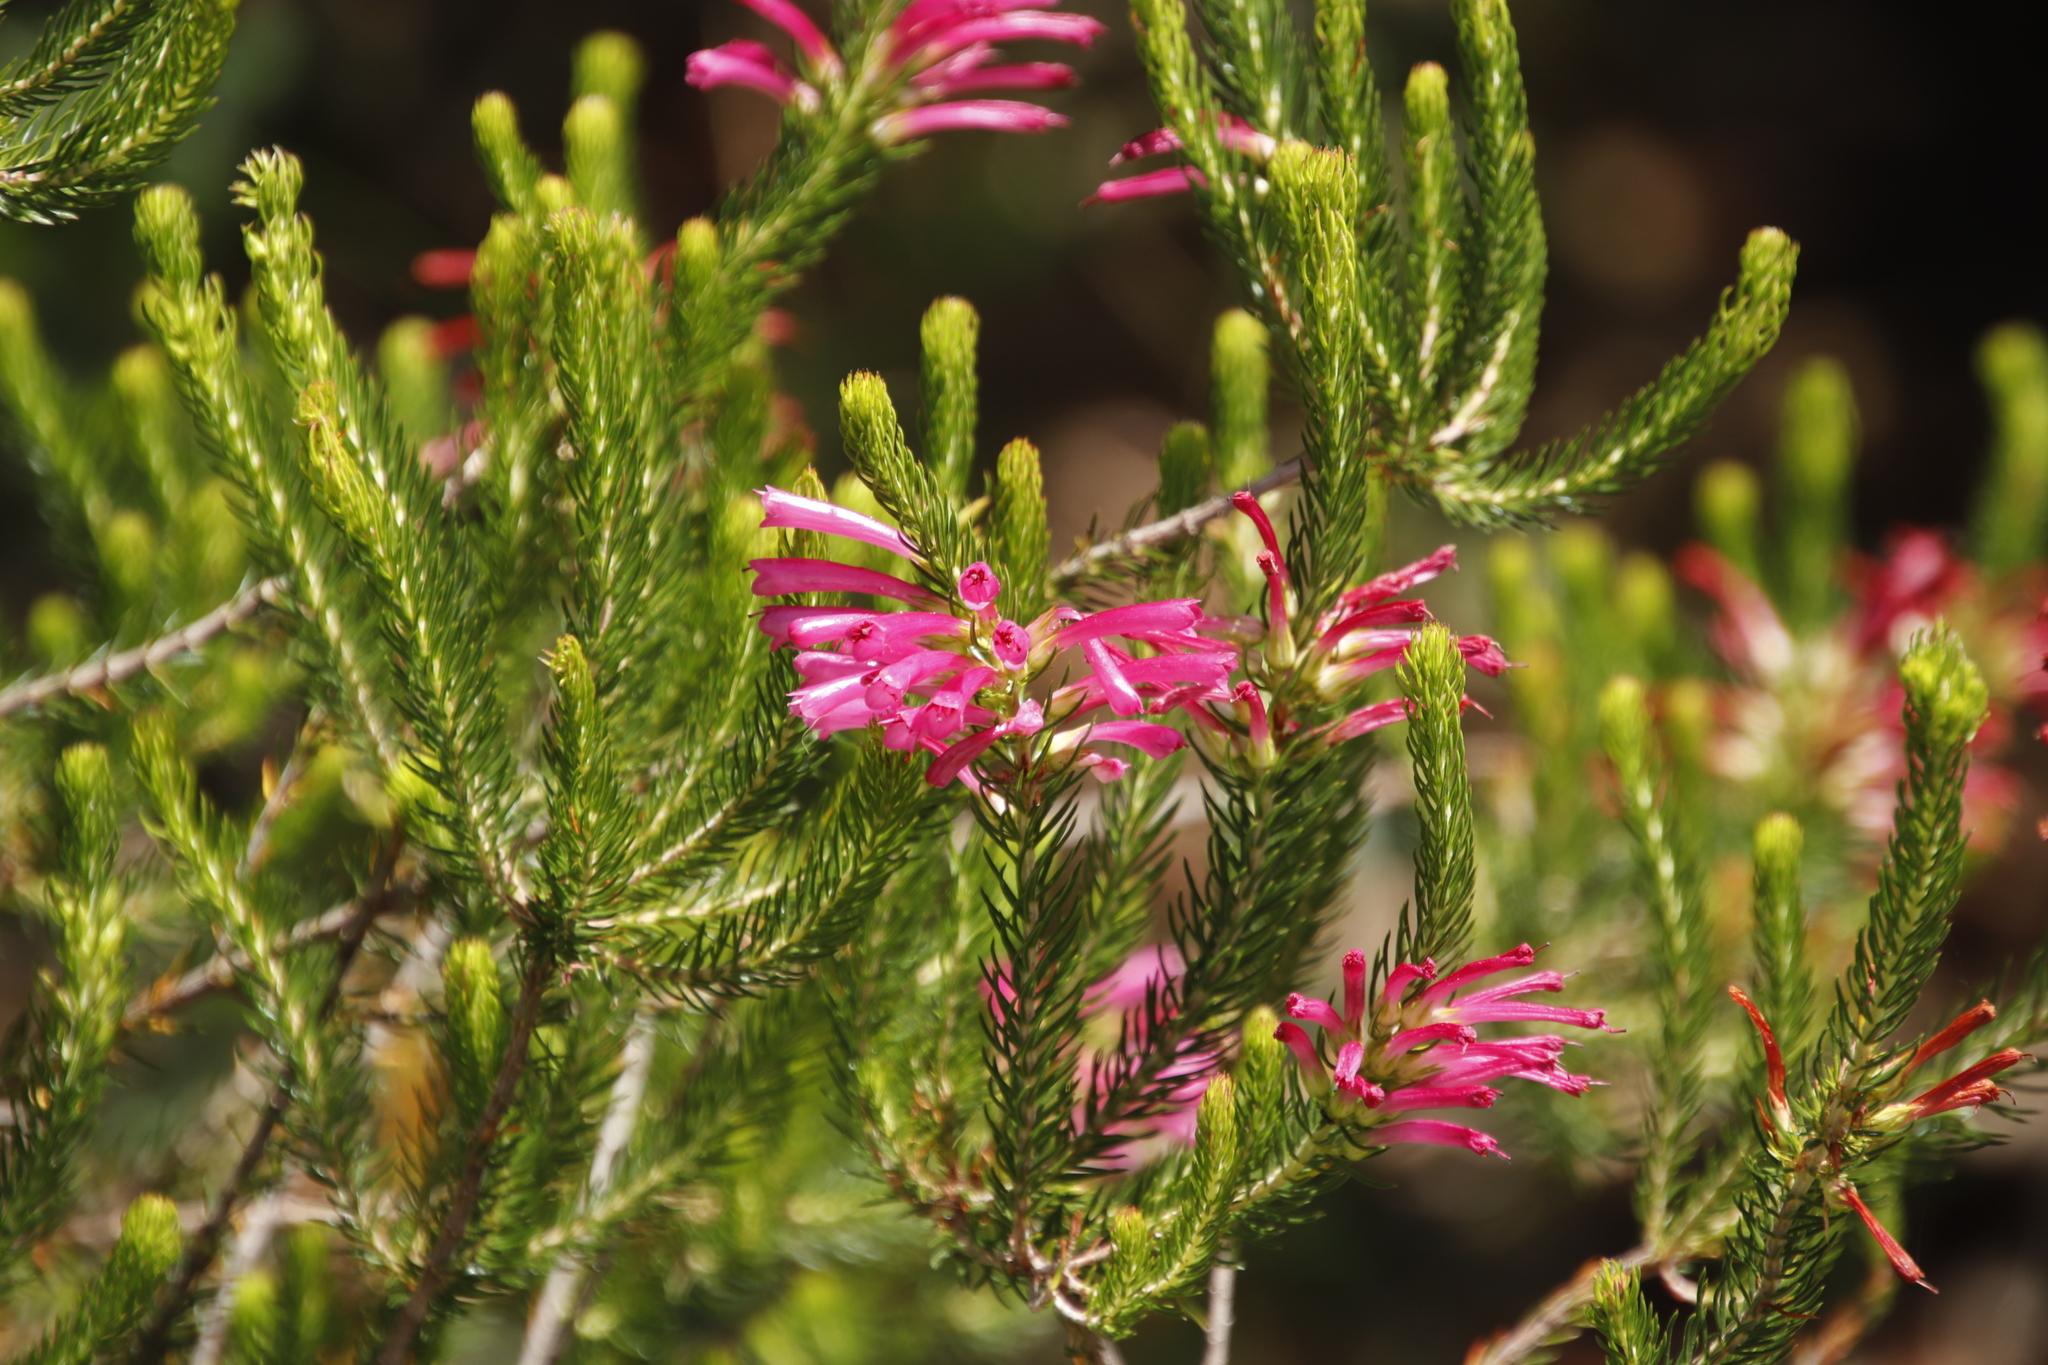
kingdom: Plantae
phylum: Tracheophyta
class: Magnoliopsida
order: Ericales
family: Ericaceae
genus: Erica
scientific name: Erica abietina
